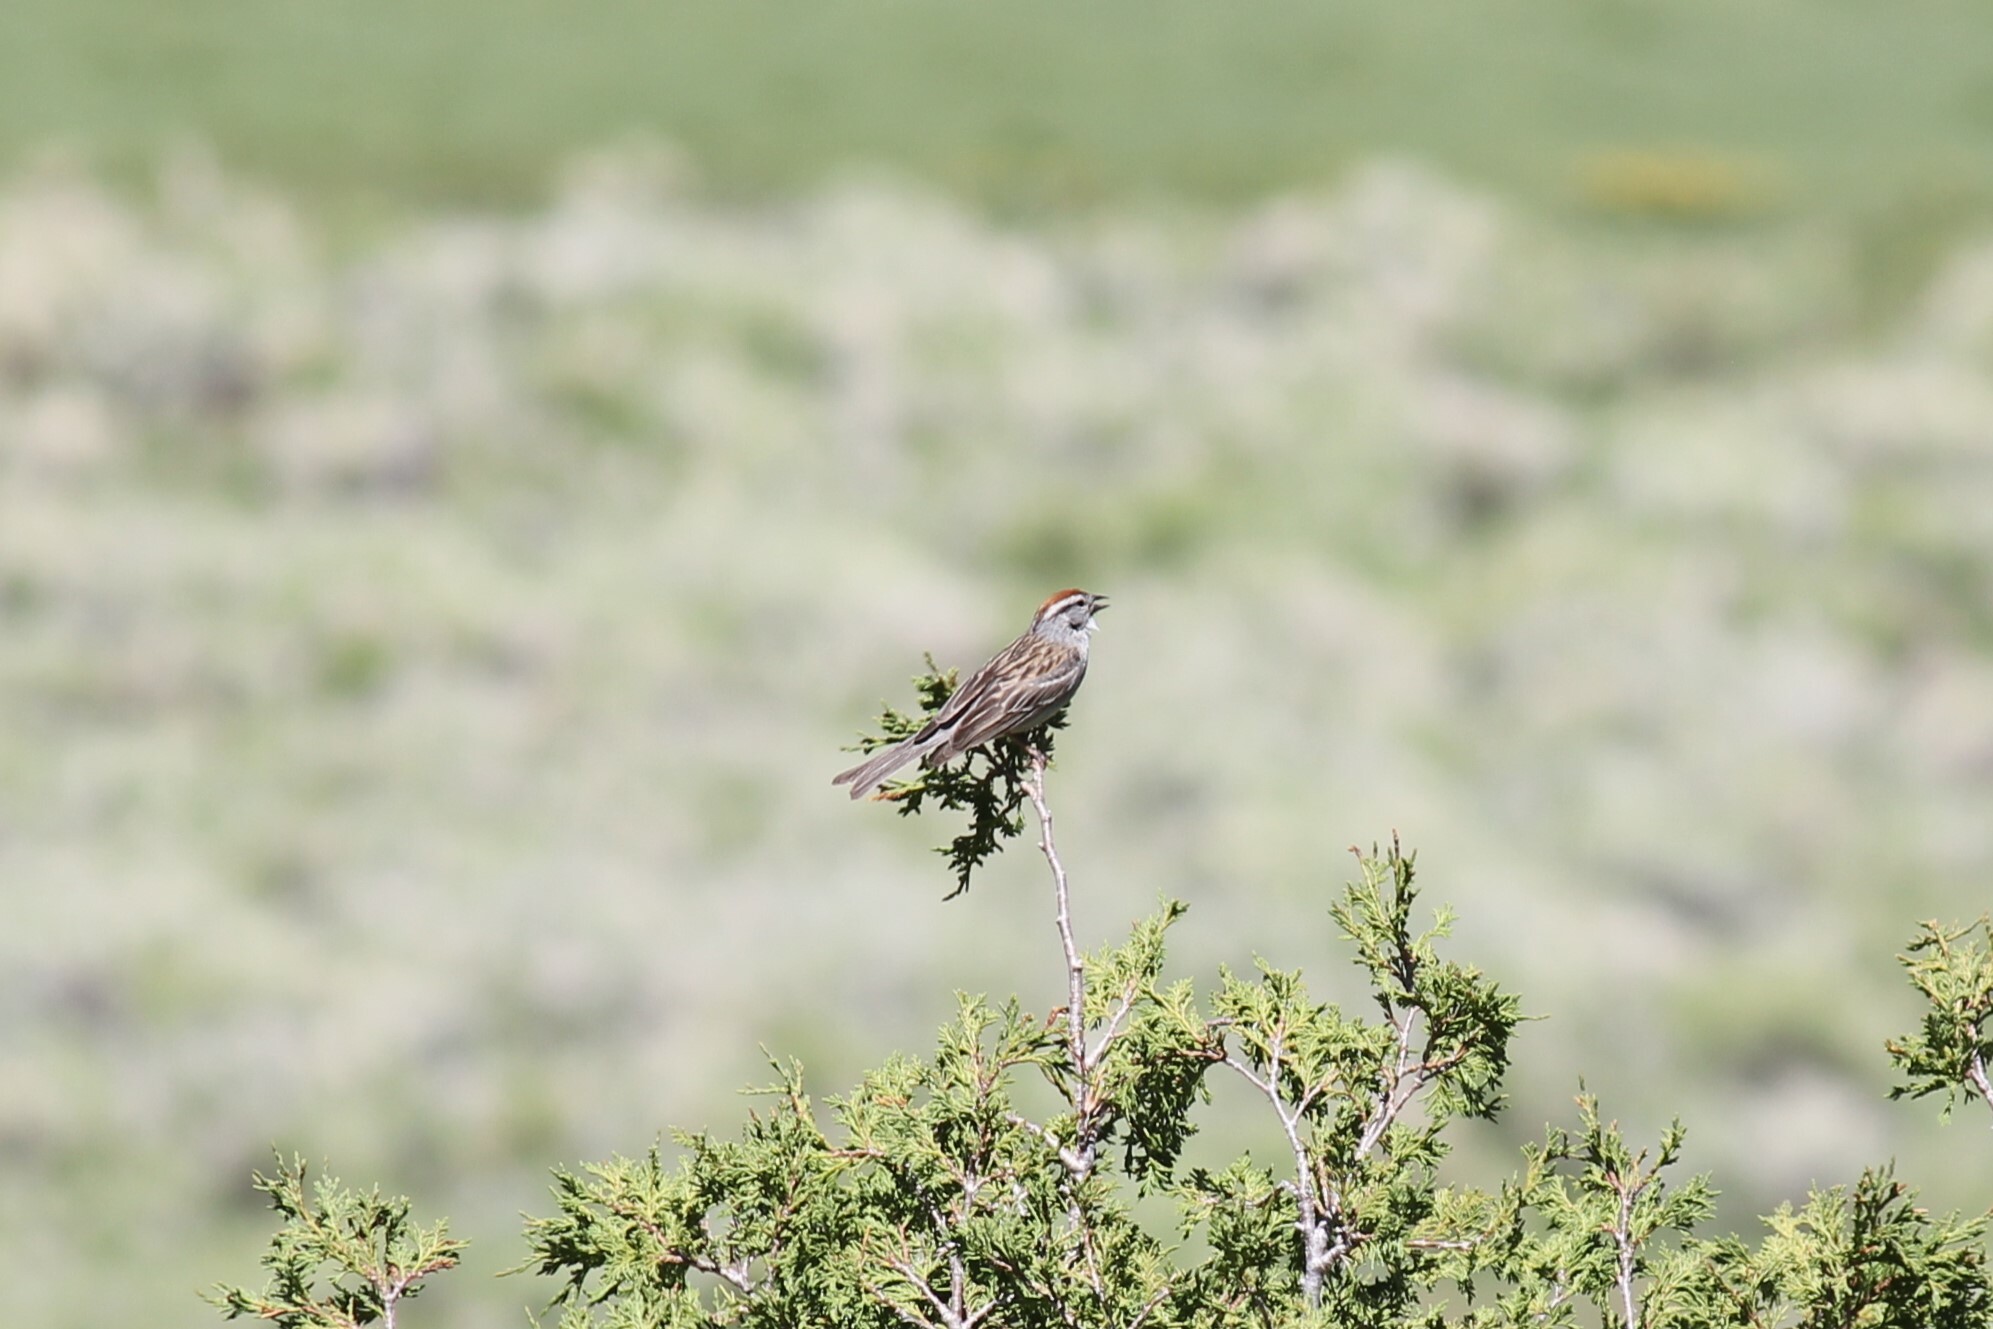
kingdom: Animalia
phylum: Chordata
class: Aves
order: Passeriformes
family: Passerellidae
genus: Spizella
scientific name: Spizella passerina
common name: Chipping sparrow
